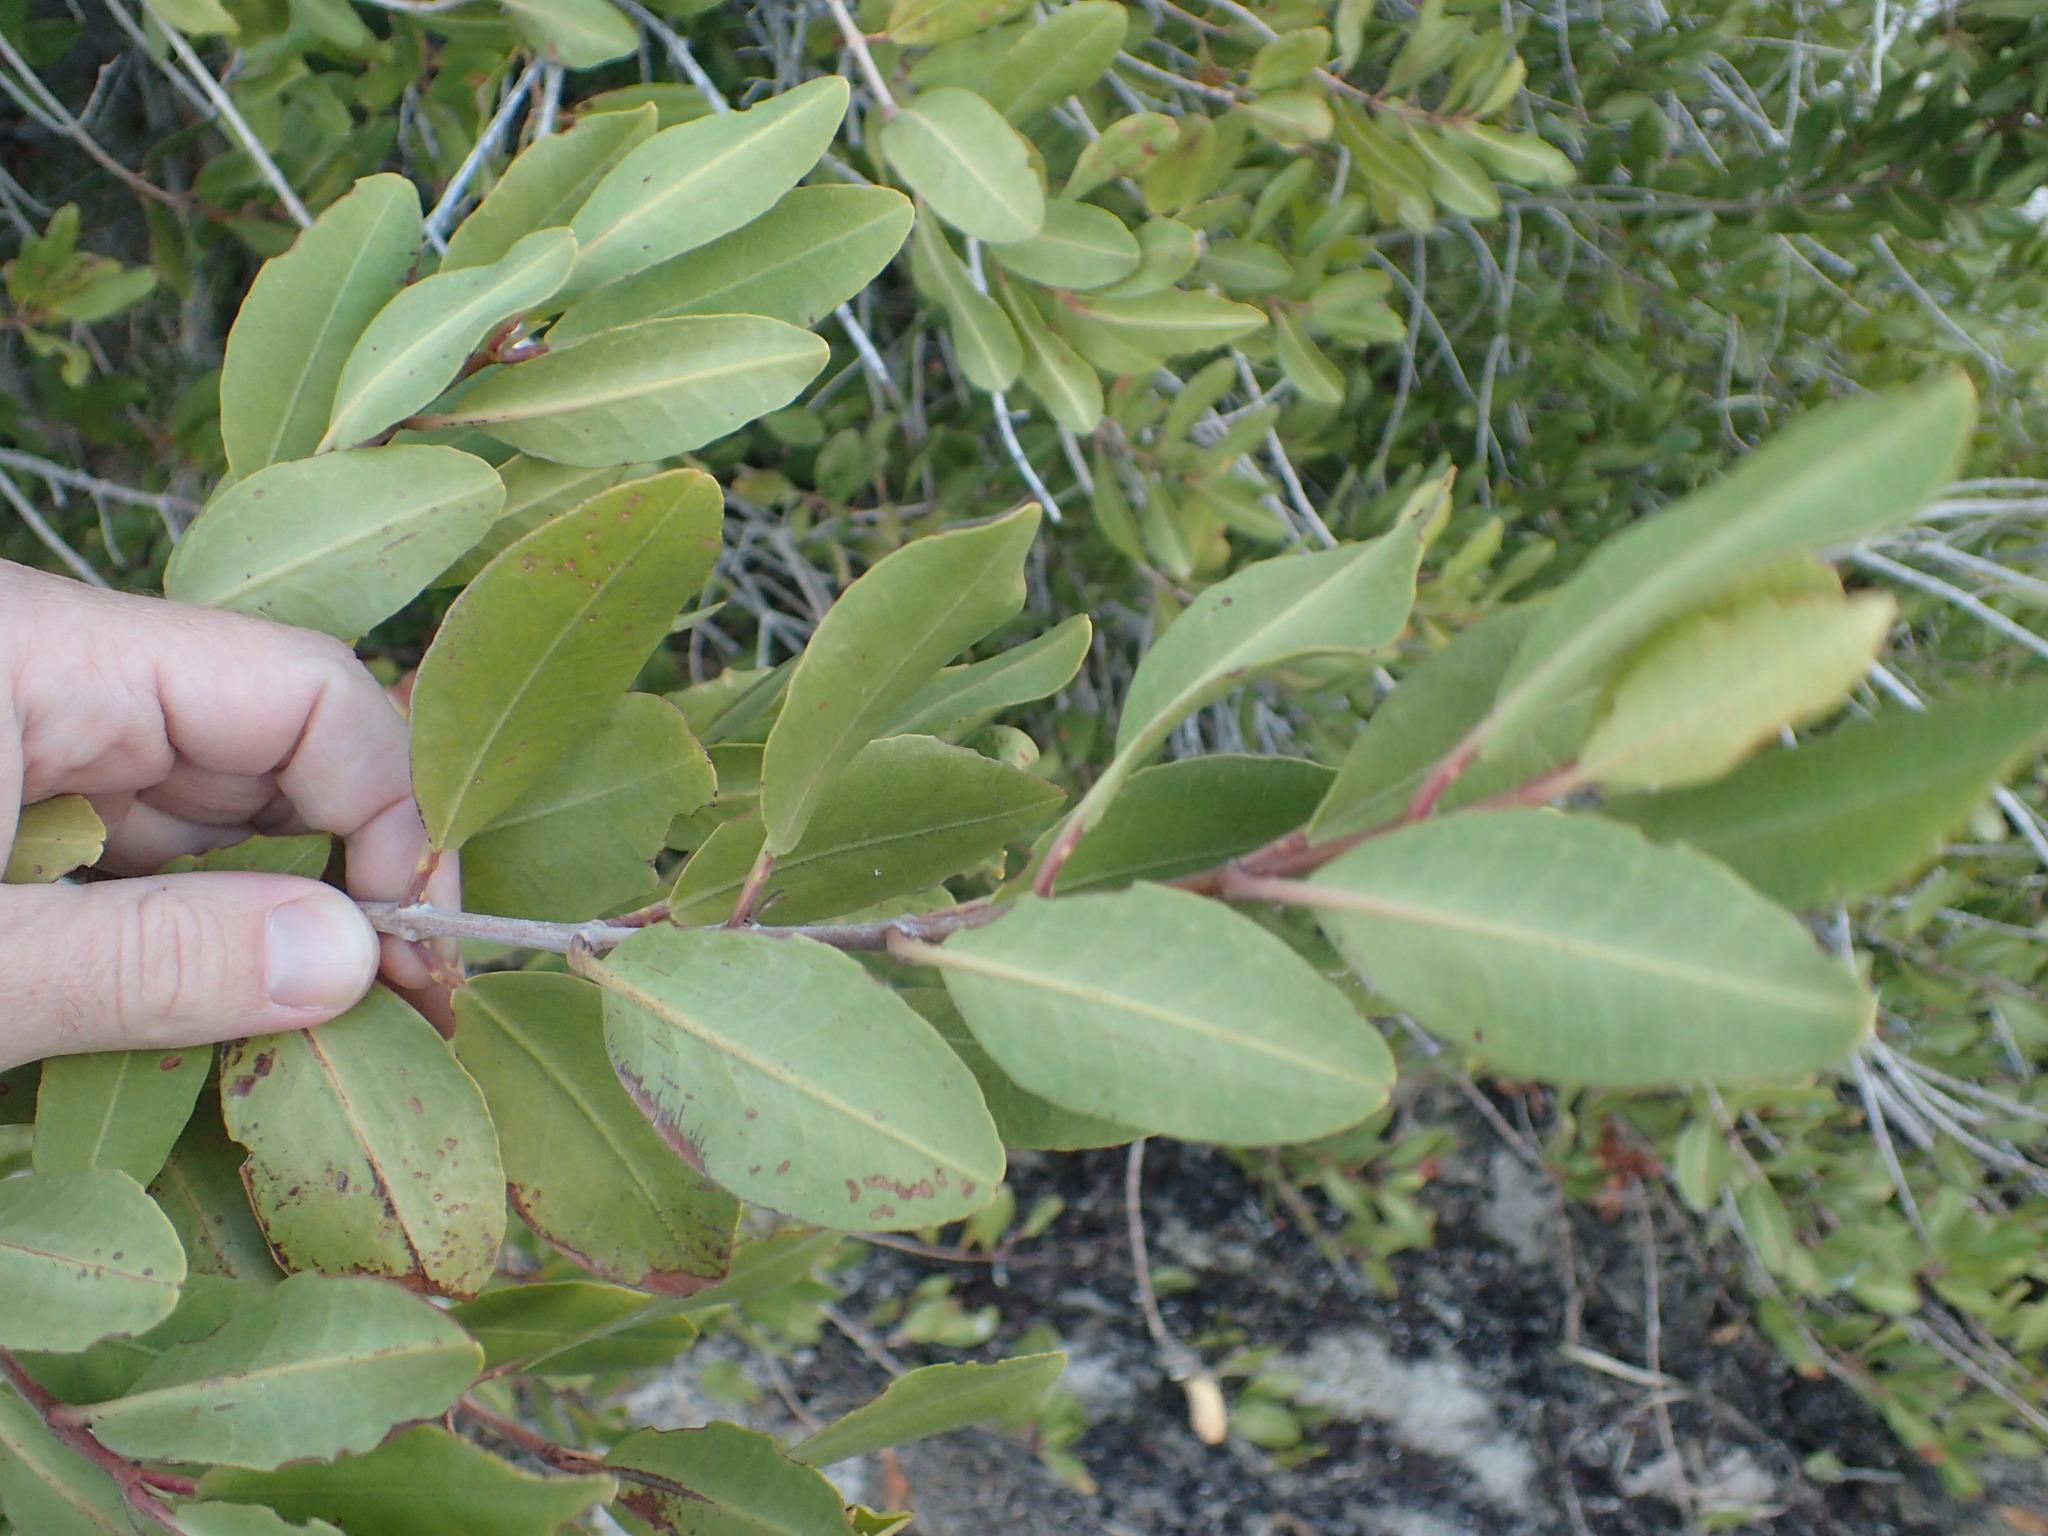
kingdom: Plantae
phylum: Tracheophyta
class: Magnoliopsida
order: Myrtales
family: Combretaceae
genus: Laguncularia
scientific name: Laguncularia racemosa
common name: White mangrove
